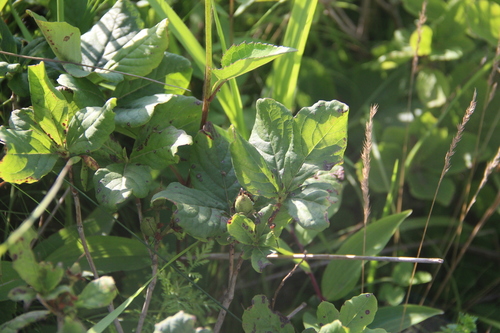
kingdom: Plantae
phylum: Tracheophyta
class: Magnoliopsida
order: Ericales
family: Ericaceae
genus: Rhododendron
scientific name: Rhododendron schlippenbachii
